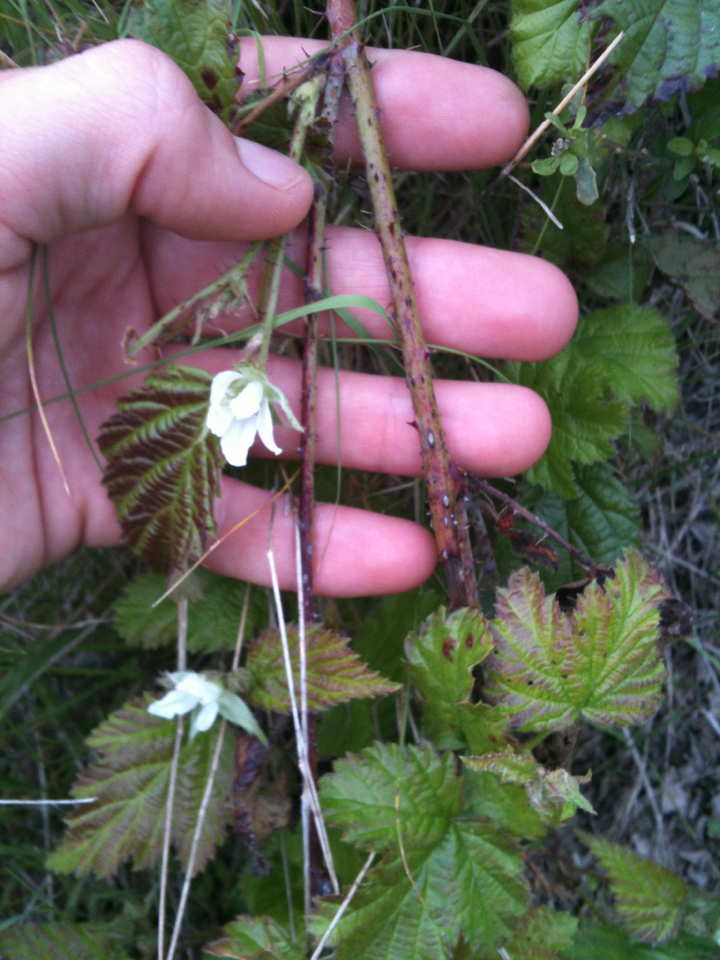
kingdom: Plantae
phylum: Tracheophyta
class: Magnoliopsida
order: Rosales
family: Rosaceae
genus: Rubus
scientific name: Rubus ursinus
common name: Pacific blackberry
